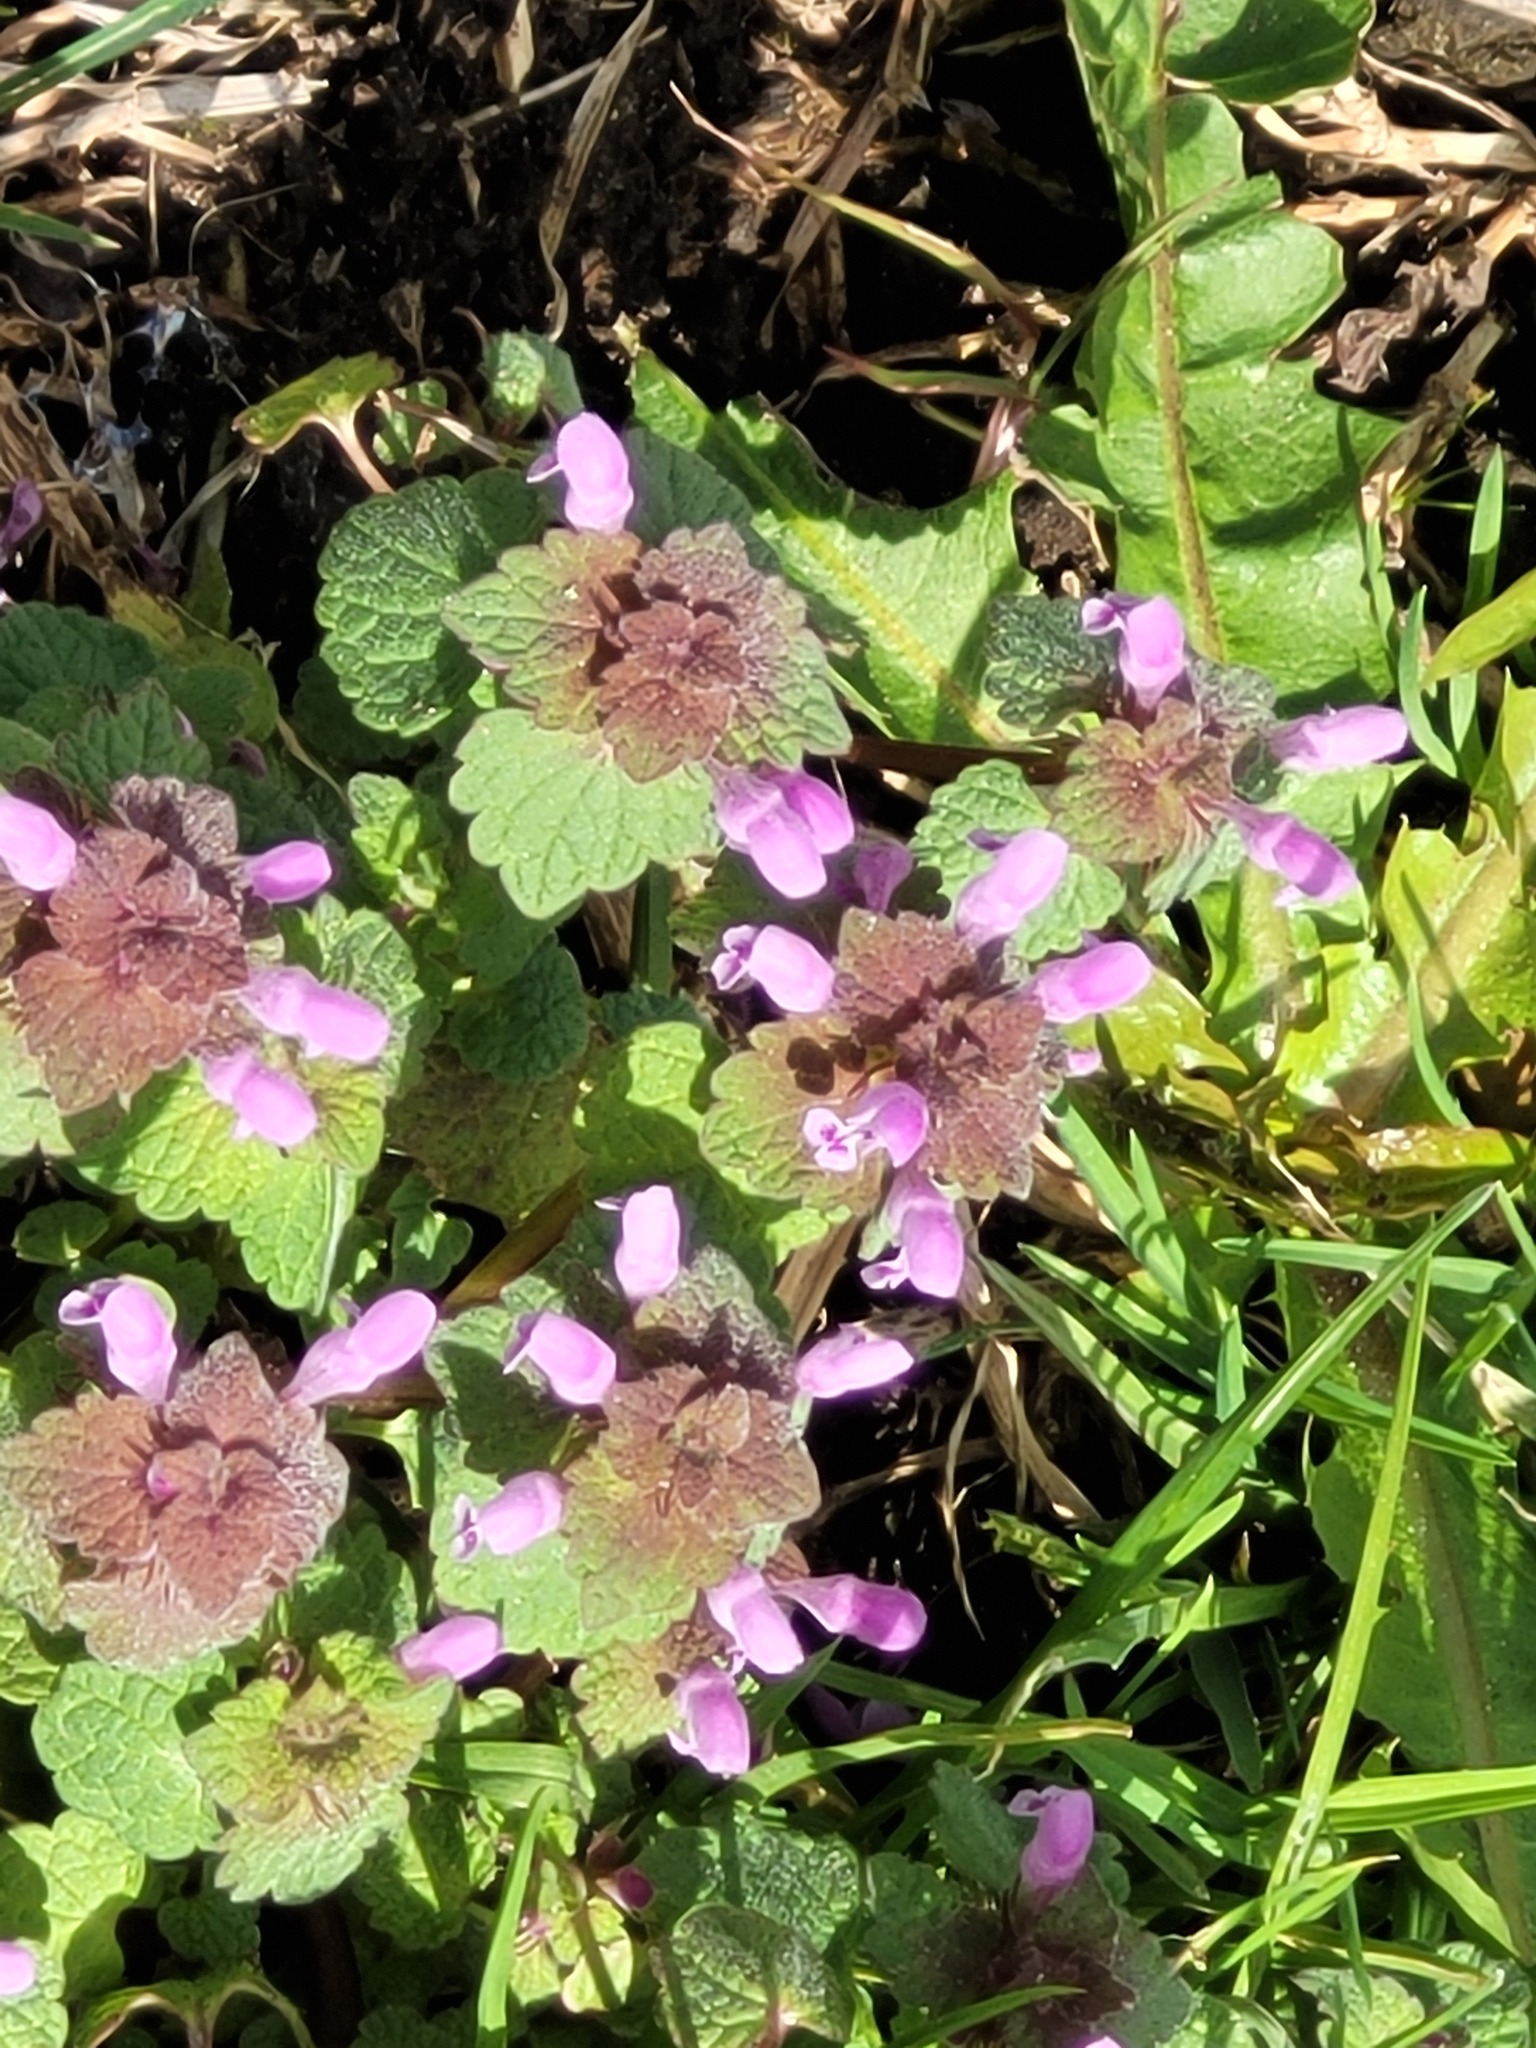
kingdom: Plantae
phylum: Tracheophyta
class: Magnoliopsida
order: Lamiales
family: Lamiaceae
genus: Lamium
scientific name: Lamium purpureum
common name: Red dead-nettle
